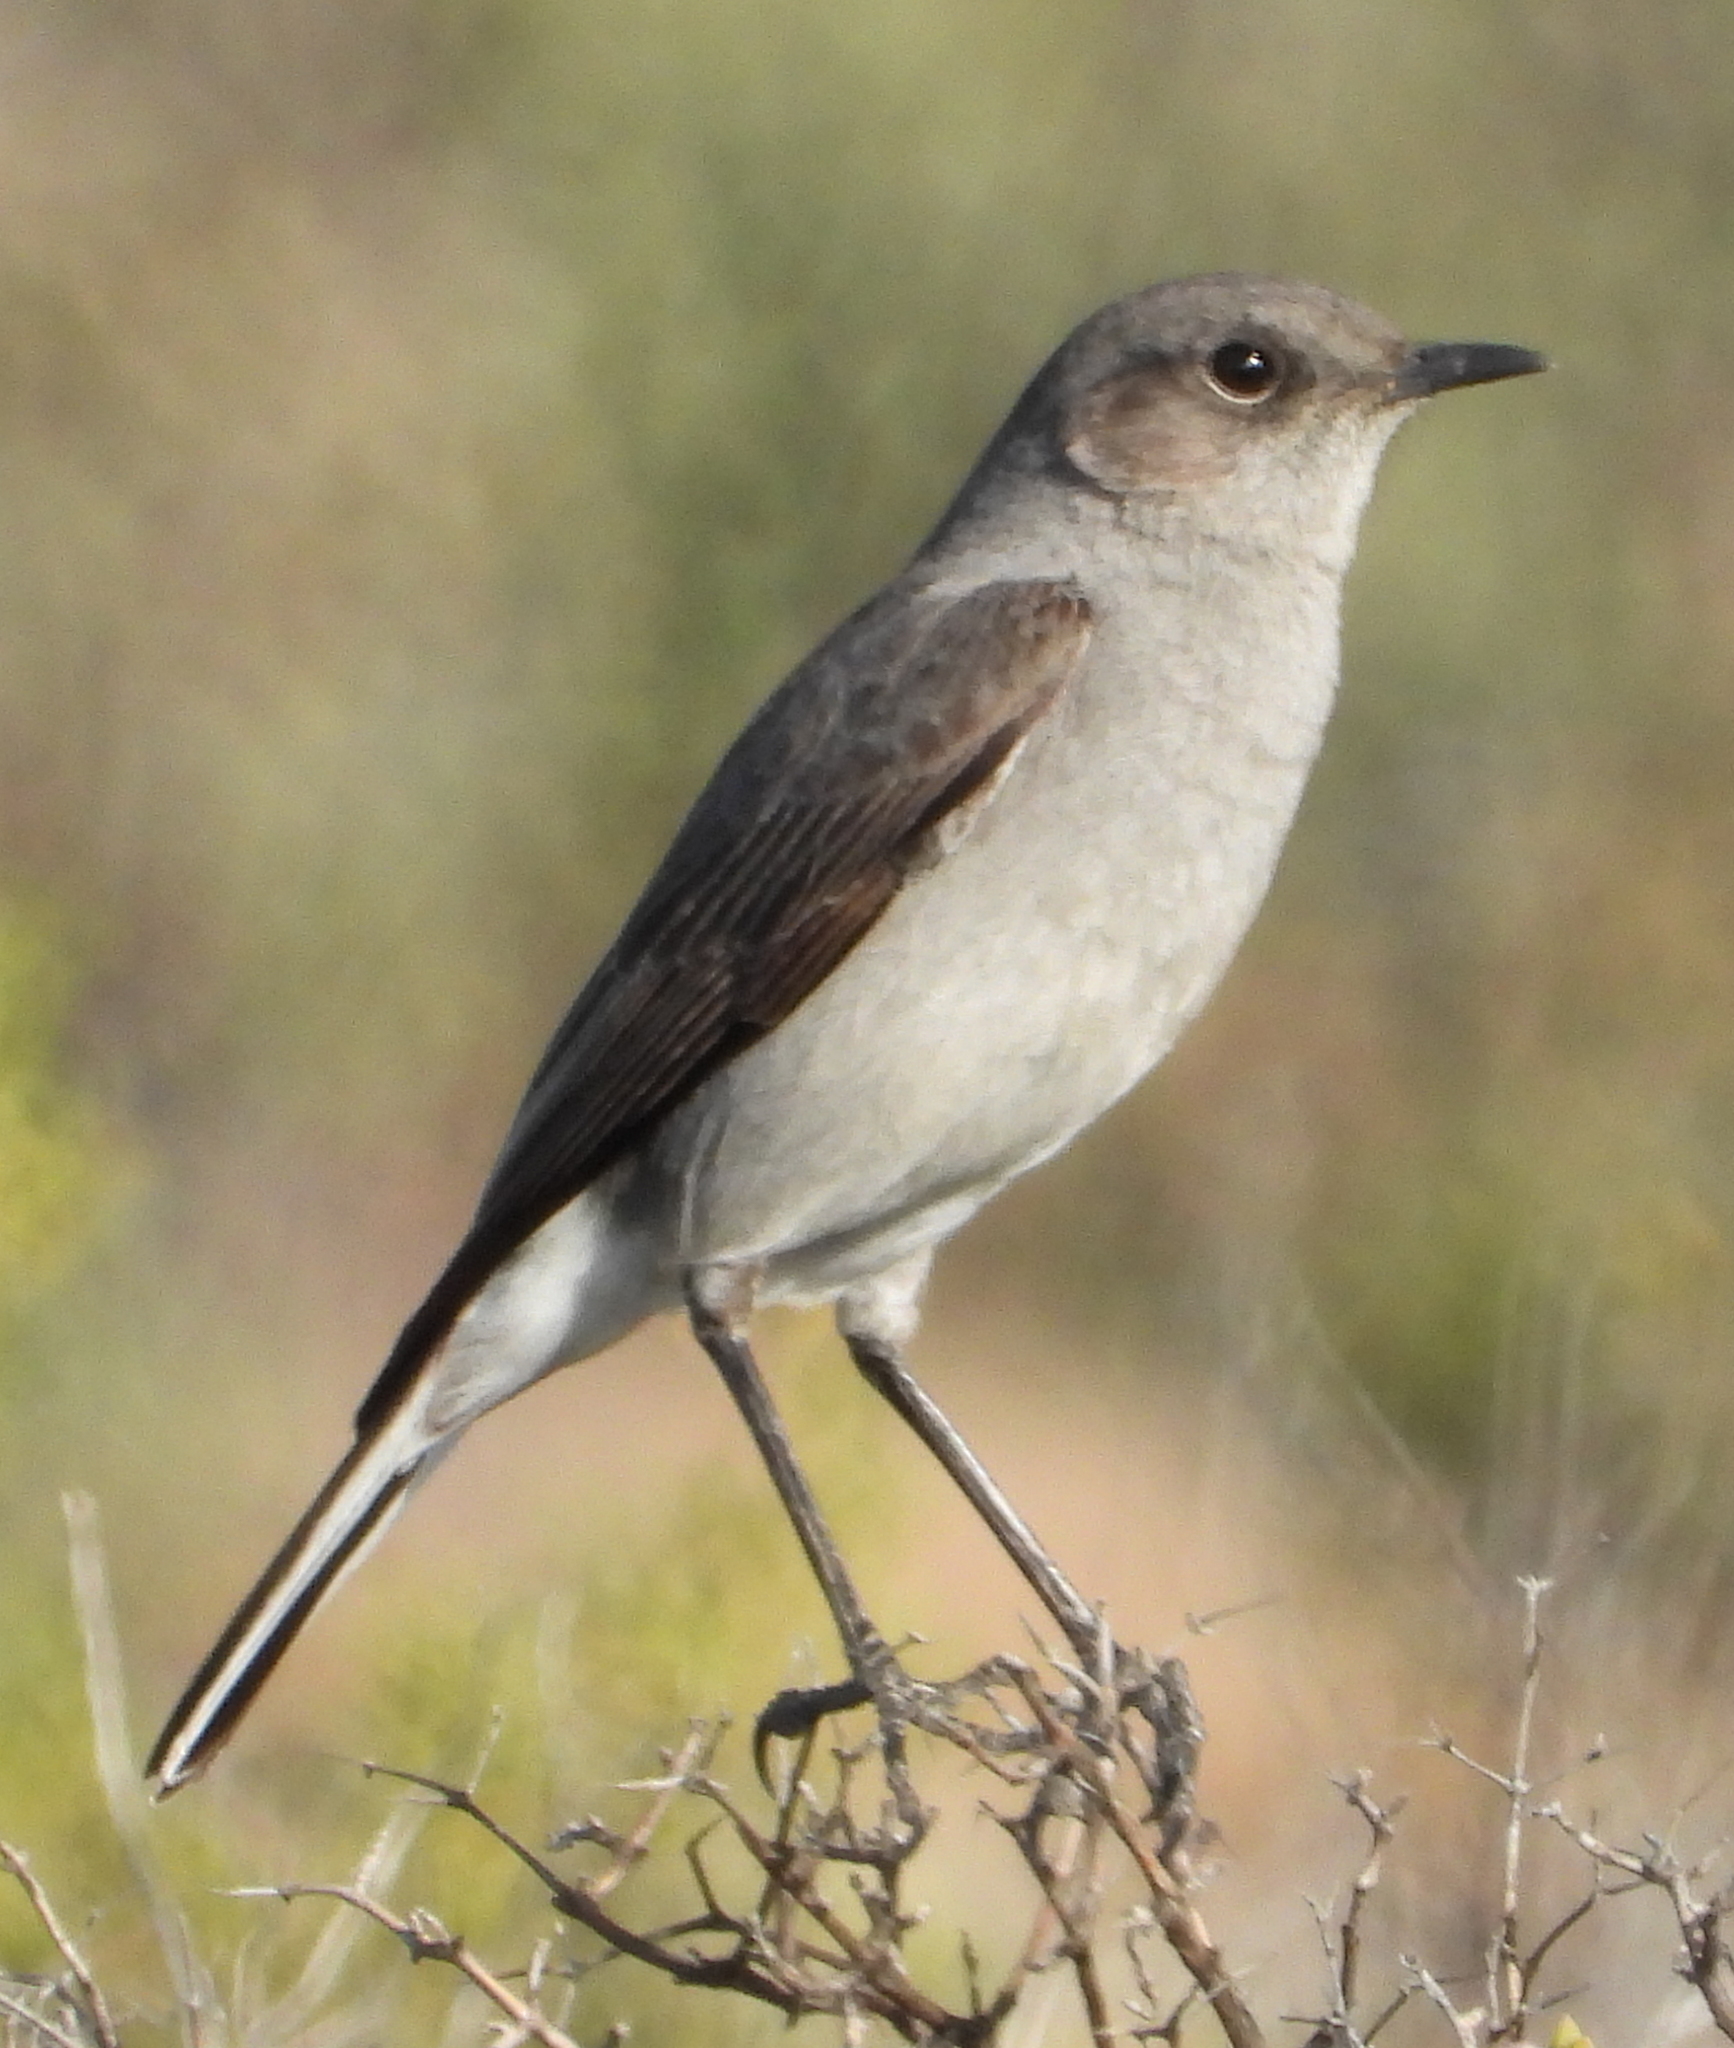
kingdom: Animalia
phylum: Chordata
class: Aves
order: Passeriformes
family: Muscicapidae
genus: Emarginata
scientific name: Emarginata schlegelii
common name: Karoo chat
